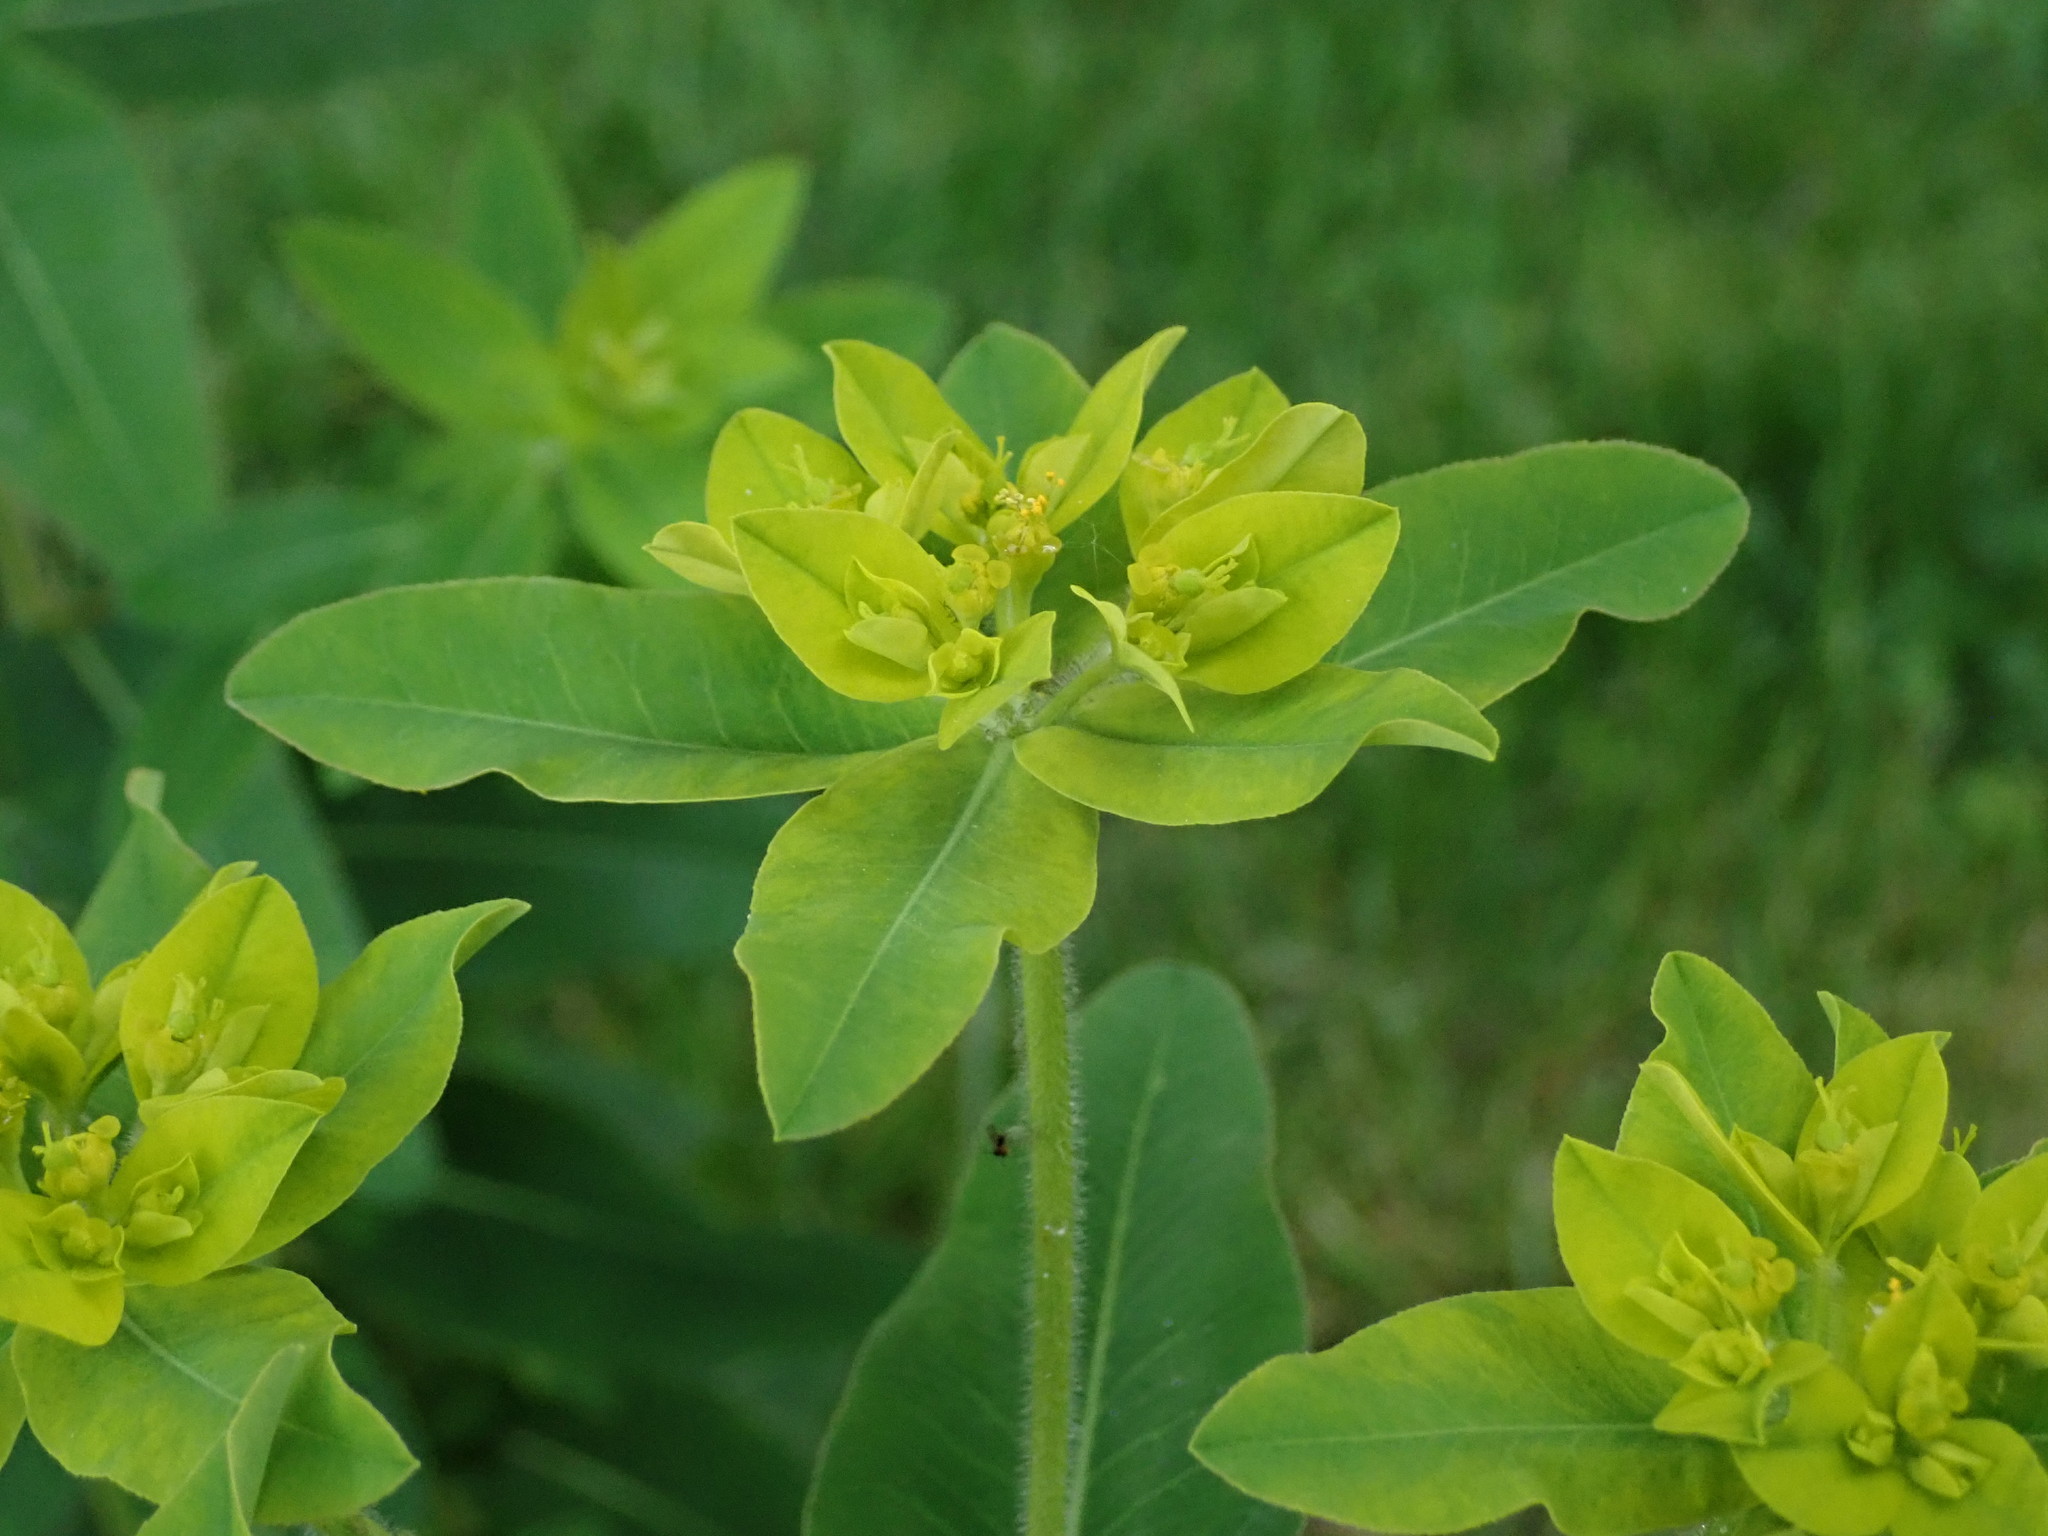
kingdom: Plantae
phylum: Tracheophyta
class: Magnoliopsida
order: Malpighiales
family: Euphorbiaceae
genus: Euphorbia
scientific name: Euphorbia oblongata
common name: Balkan spurge
